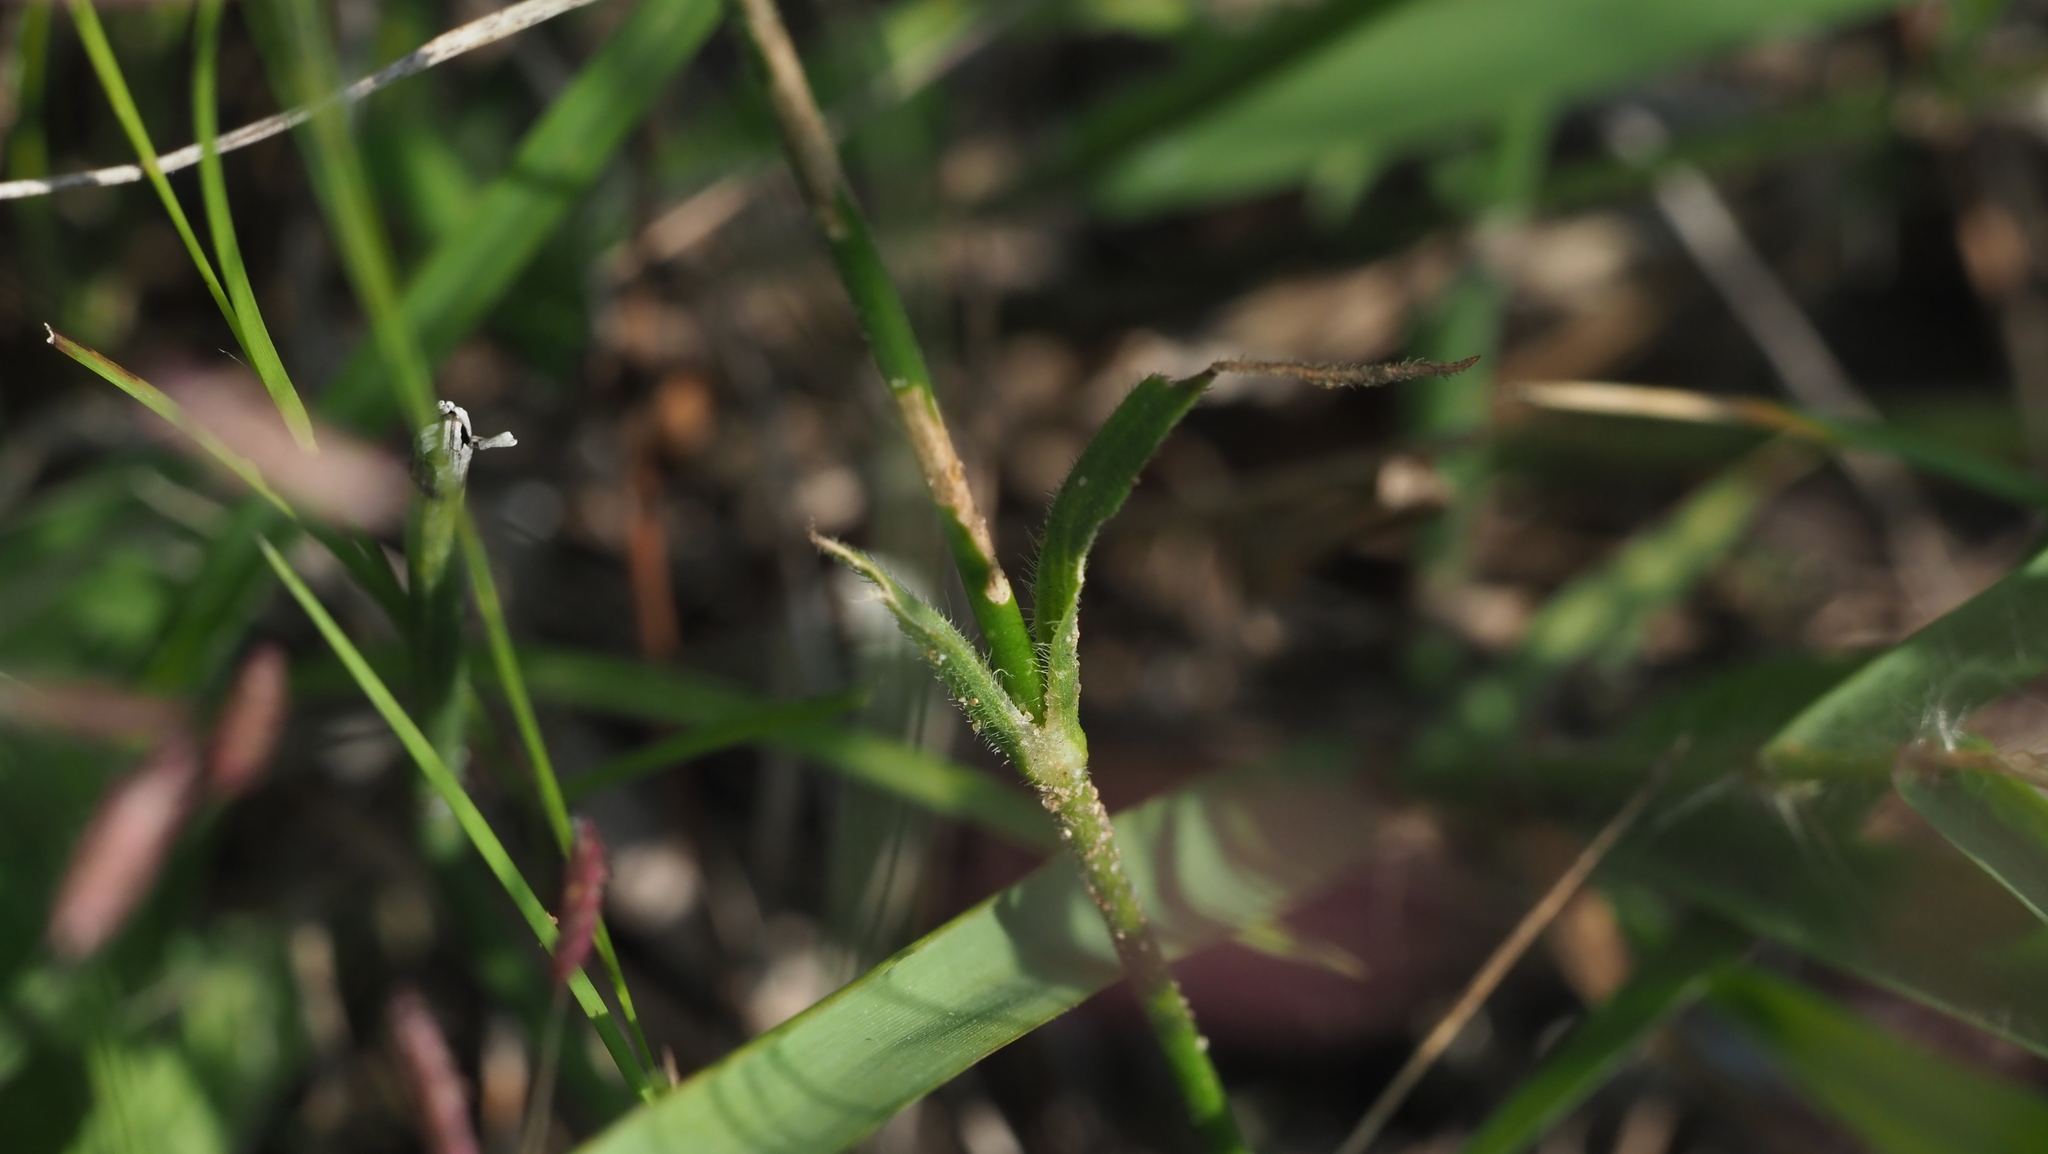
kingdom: Plantae
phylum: Tracheophyta
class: Magnoliopsida
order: Caryophyllales
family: Caryophyllaceae
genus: Dianthus
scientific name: Dianthus armeria
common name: Deptford pink
